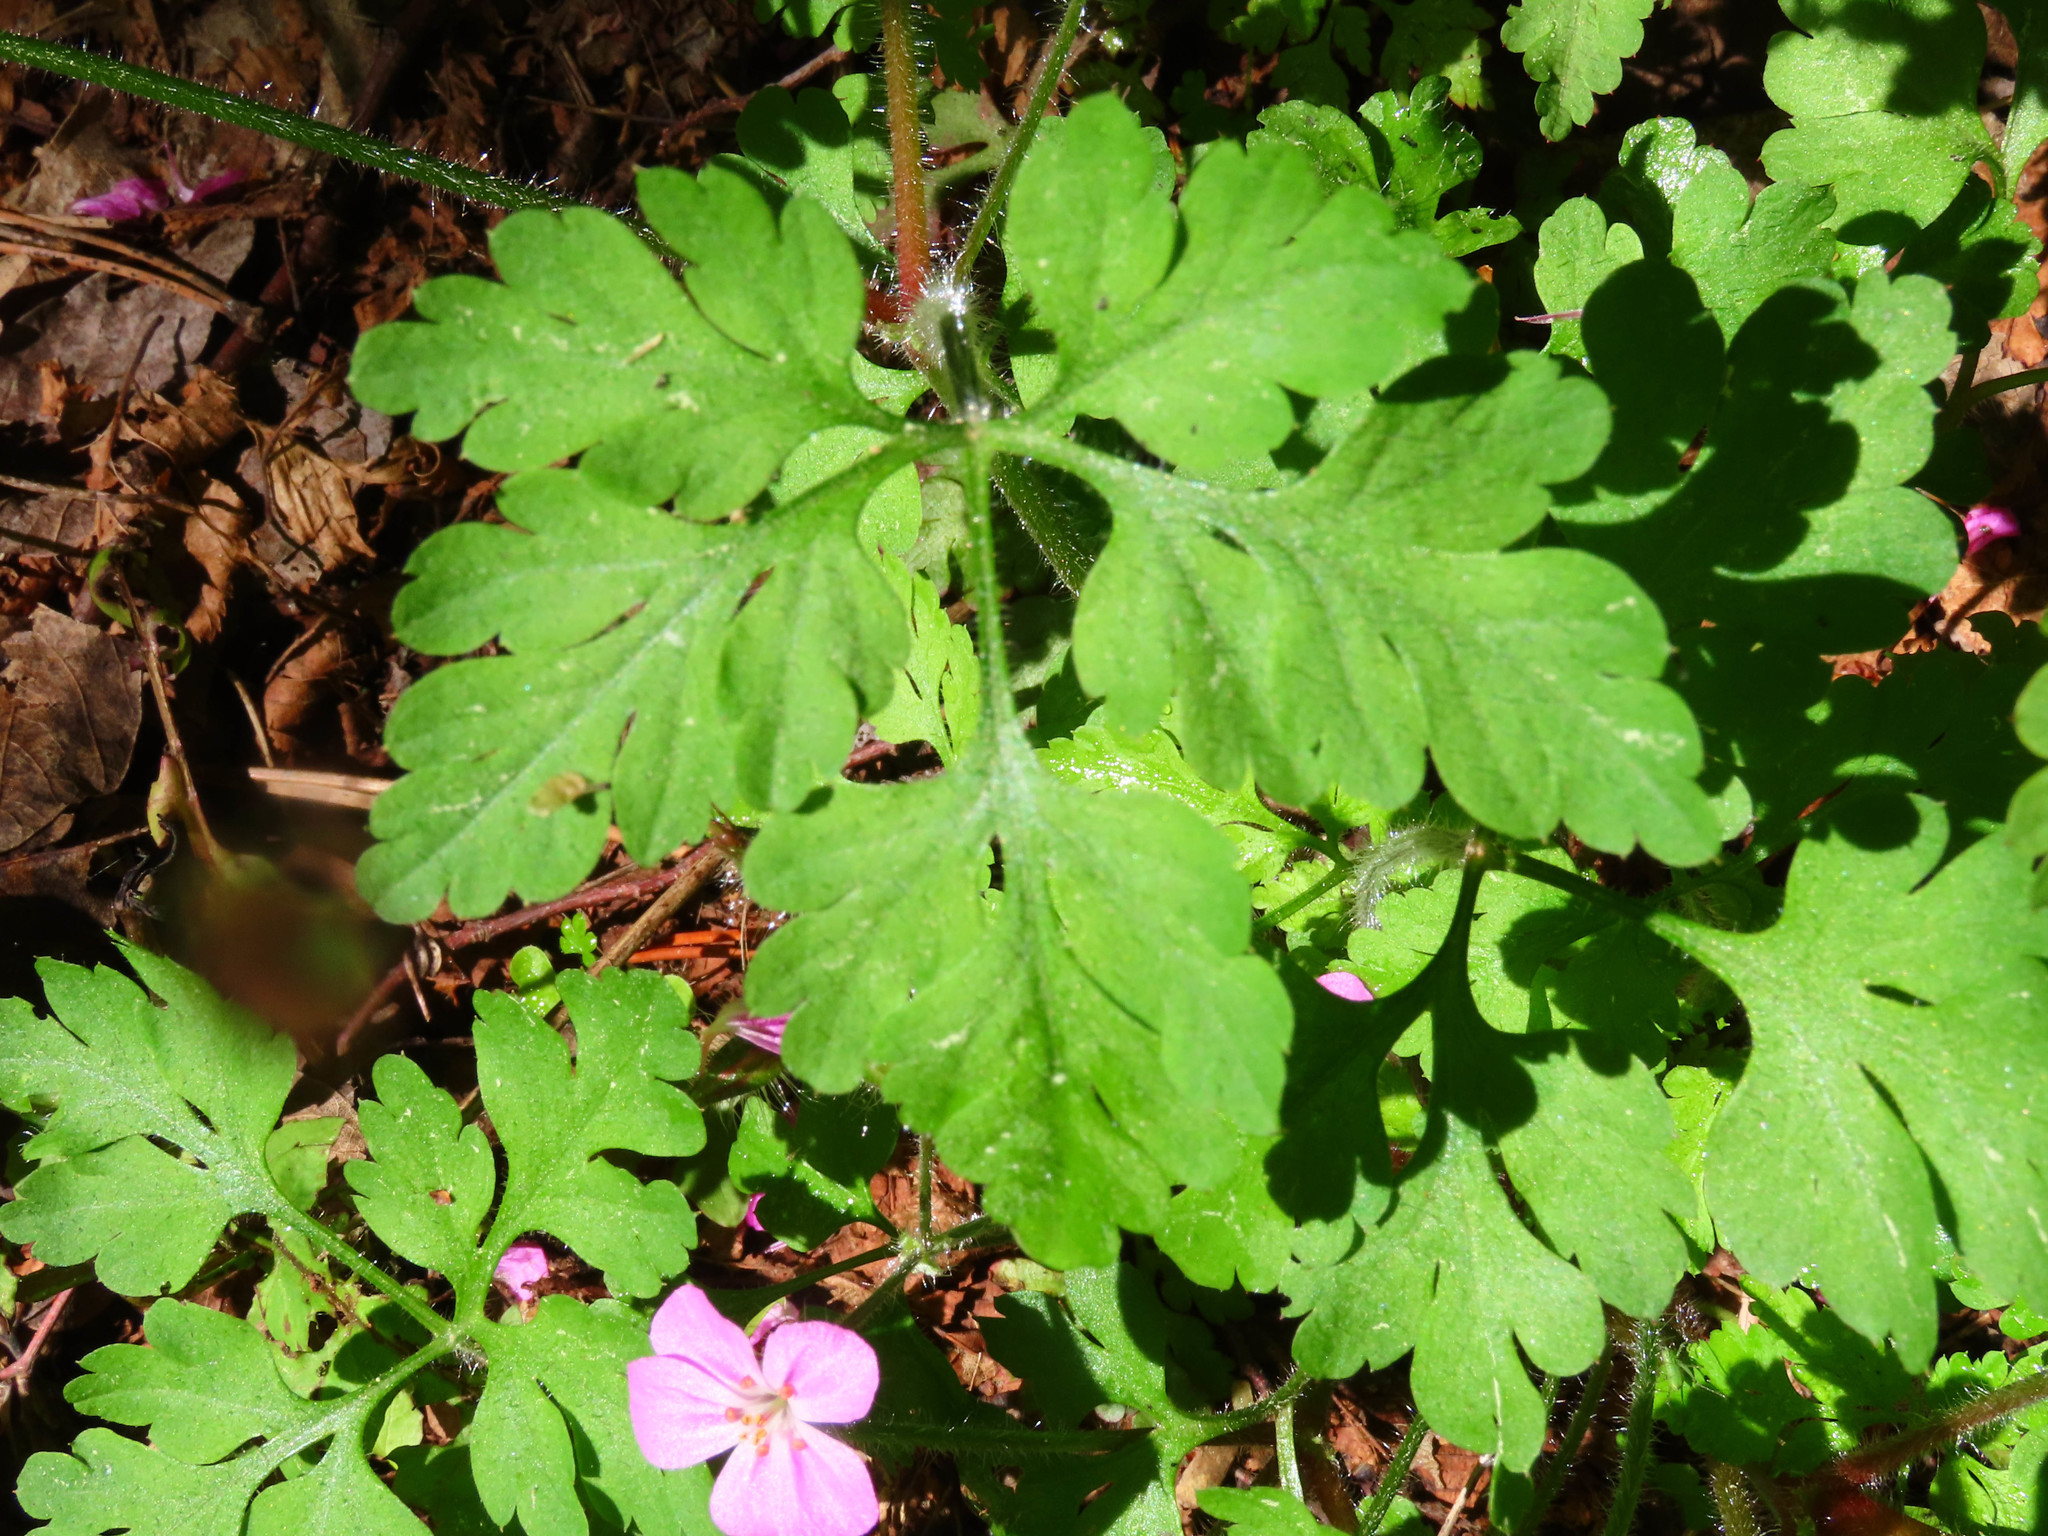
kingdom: Plantae
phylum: Tracheophyta
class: Magnoliopsida
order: Geraniales
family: Geraniaceae
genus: Geranium
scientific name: Geranium robertianum
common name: Herb-robert
